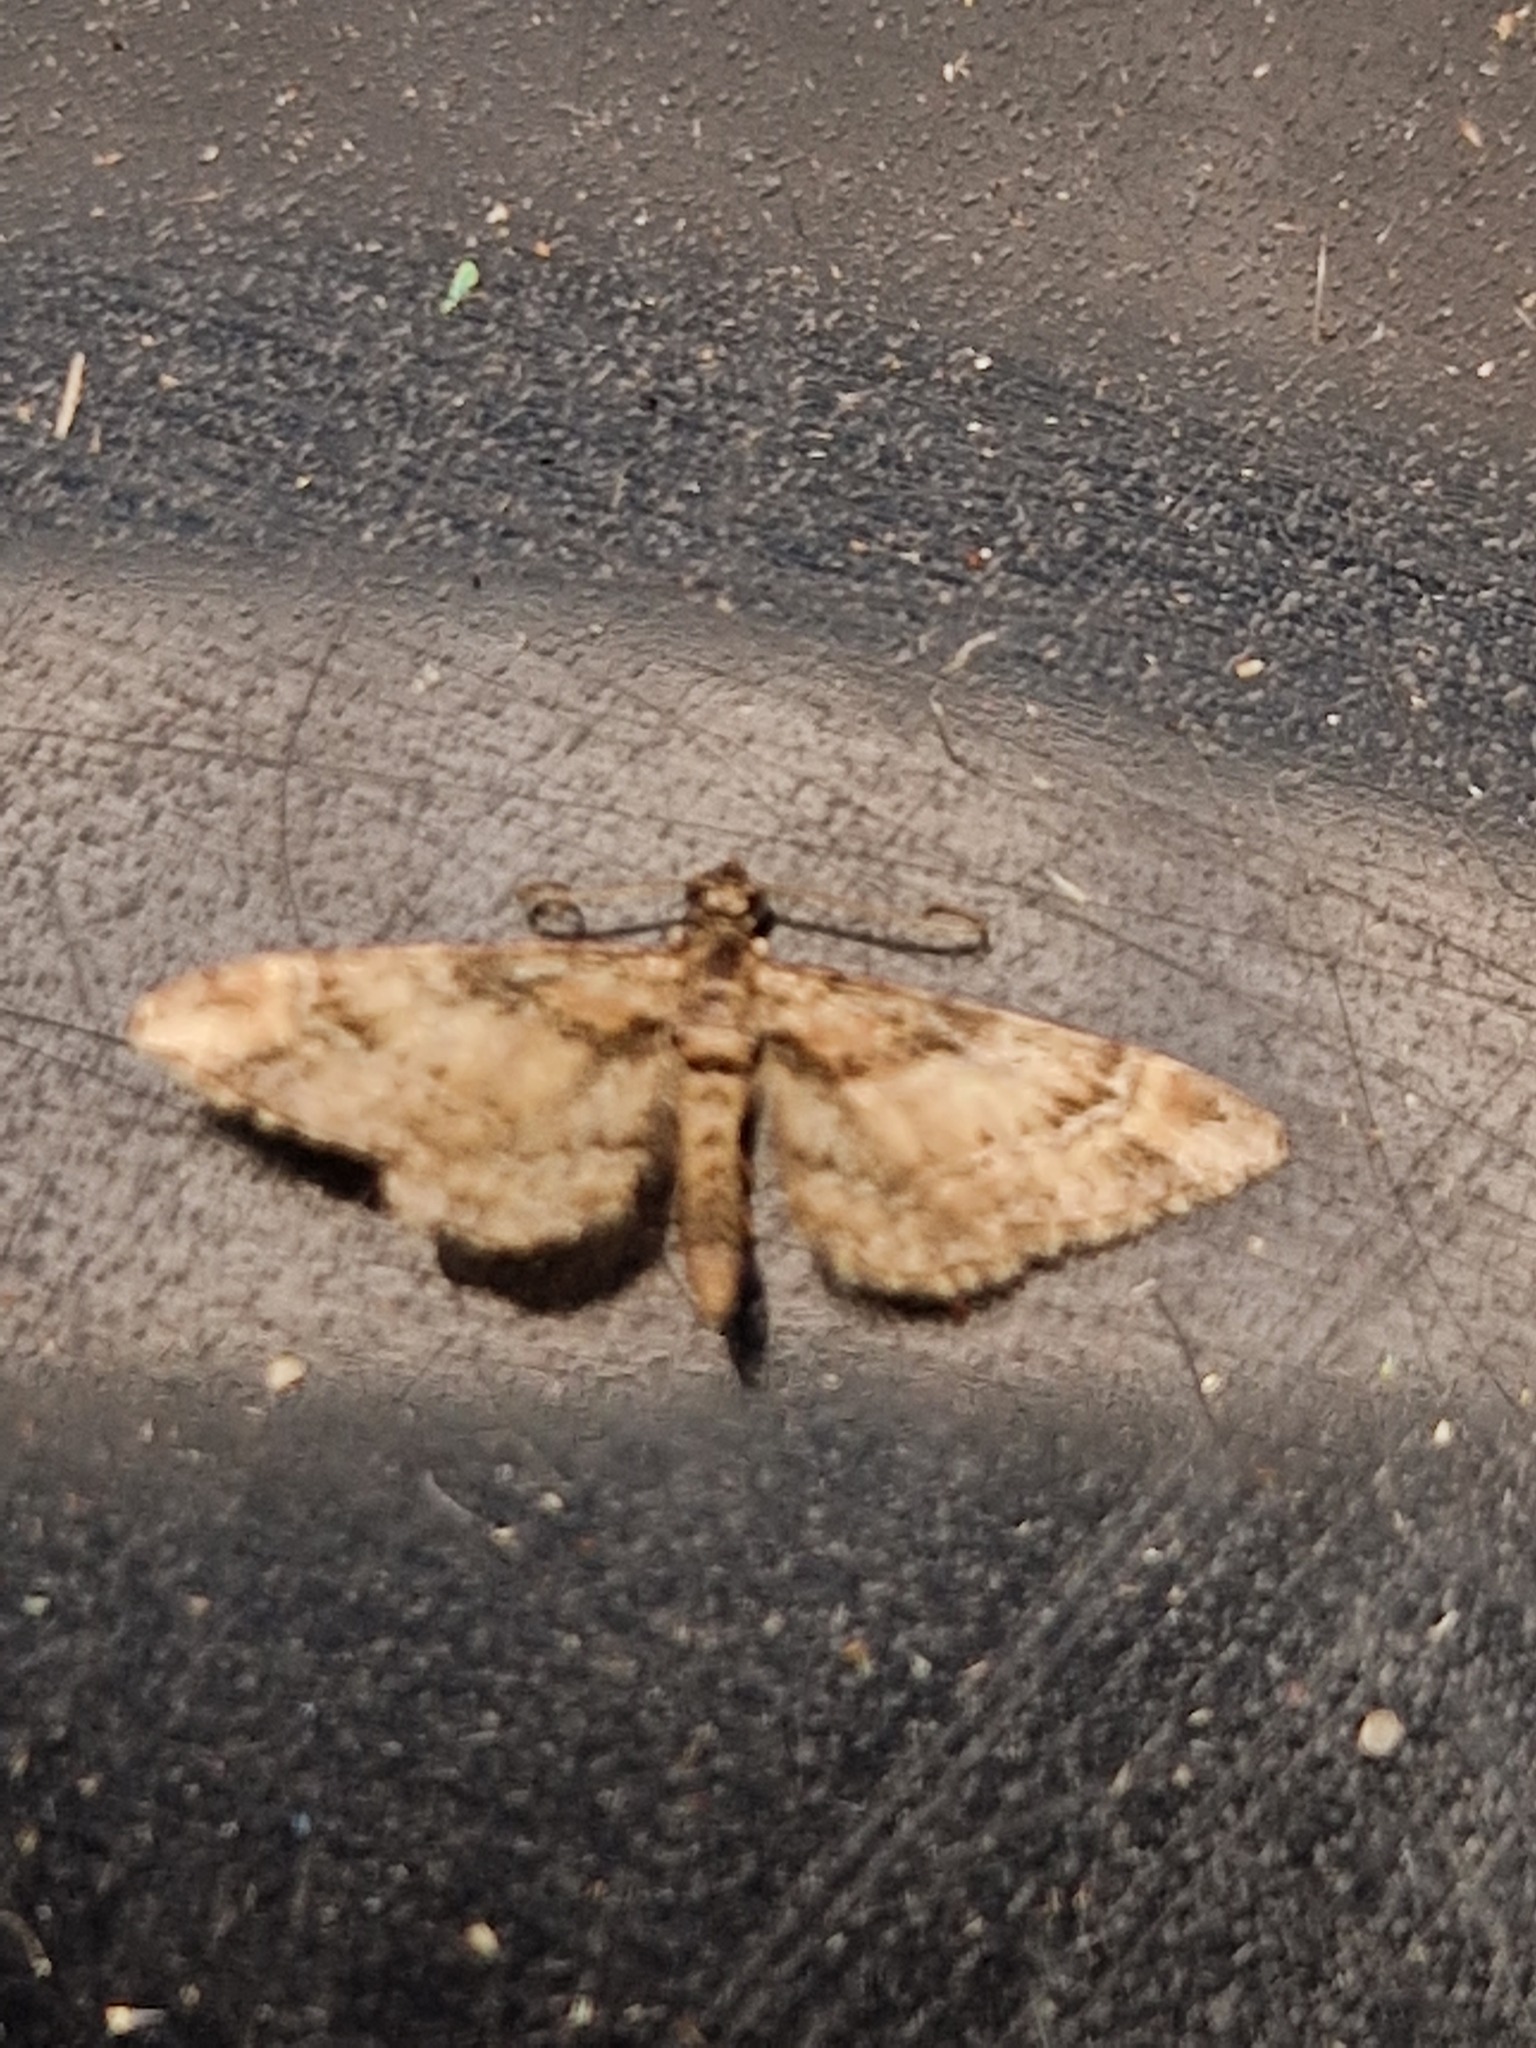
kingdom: Animalia
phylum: Arthropoda
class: Insecta
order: Lepidoptera
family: Geometridae
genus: Gymnoscelis
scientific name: Gymnoscelis rufifasciata
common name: Double-striped pug
